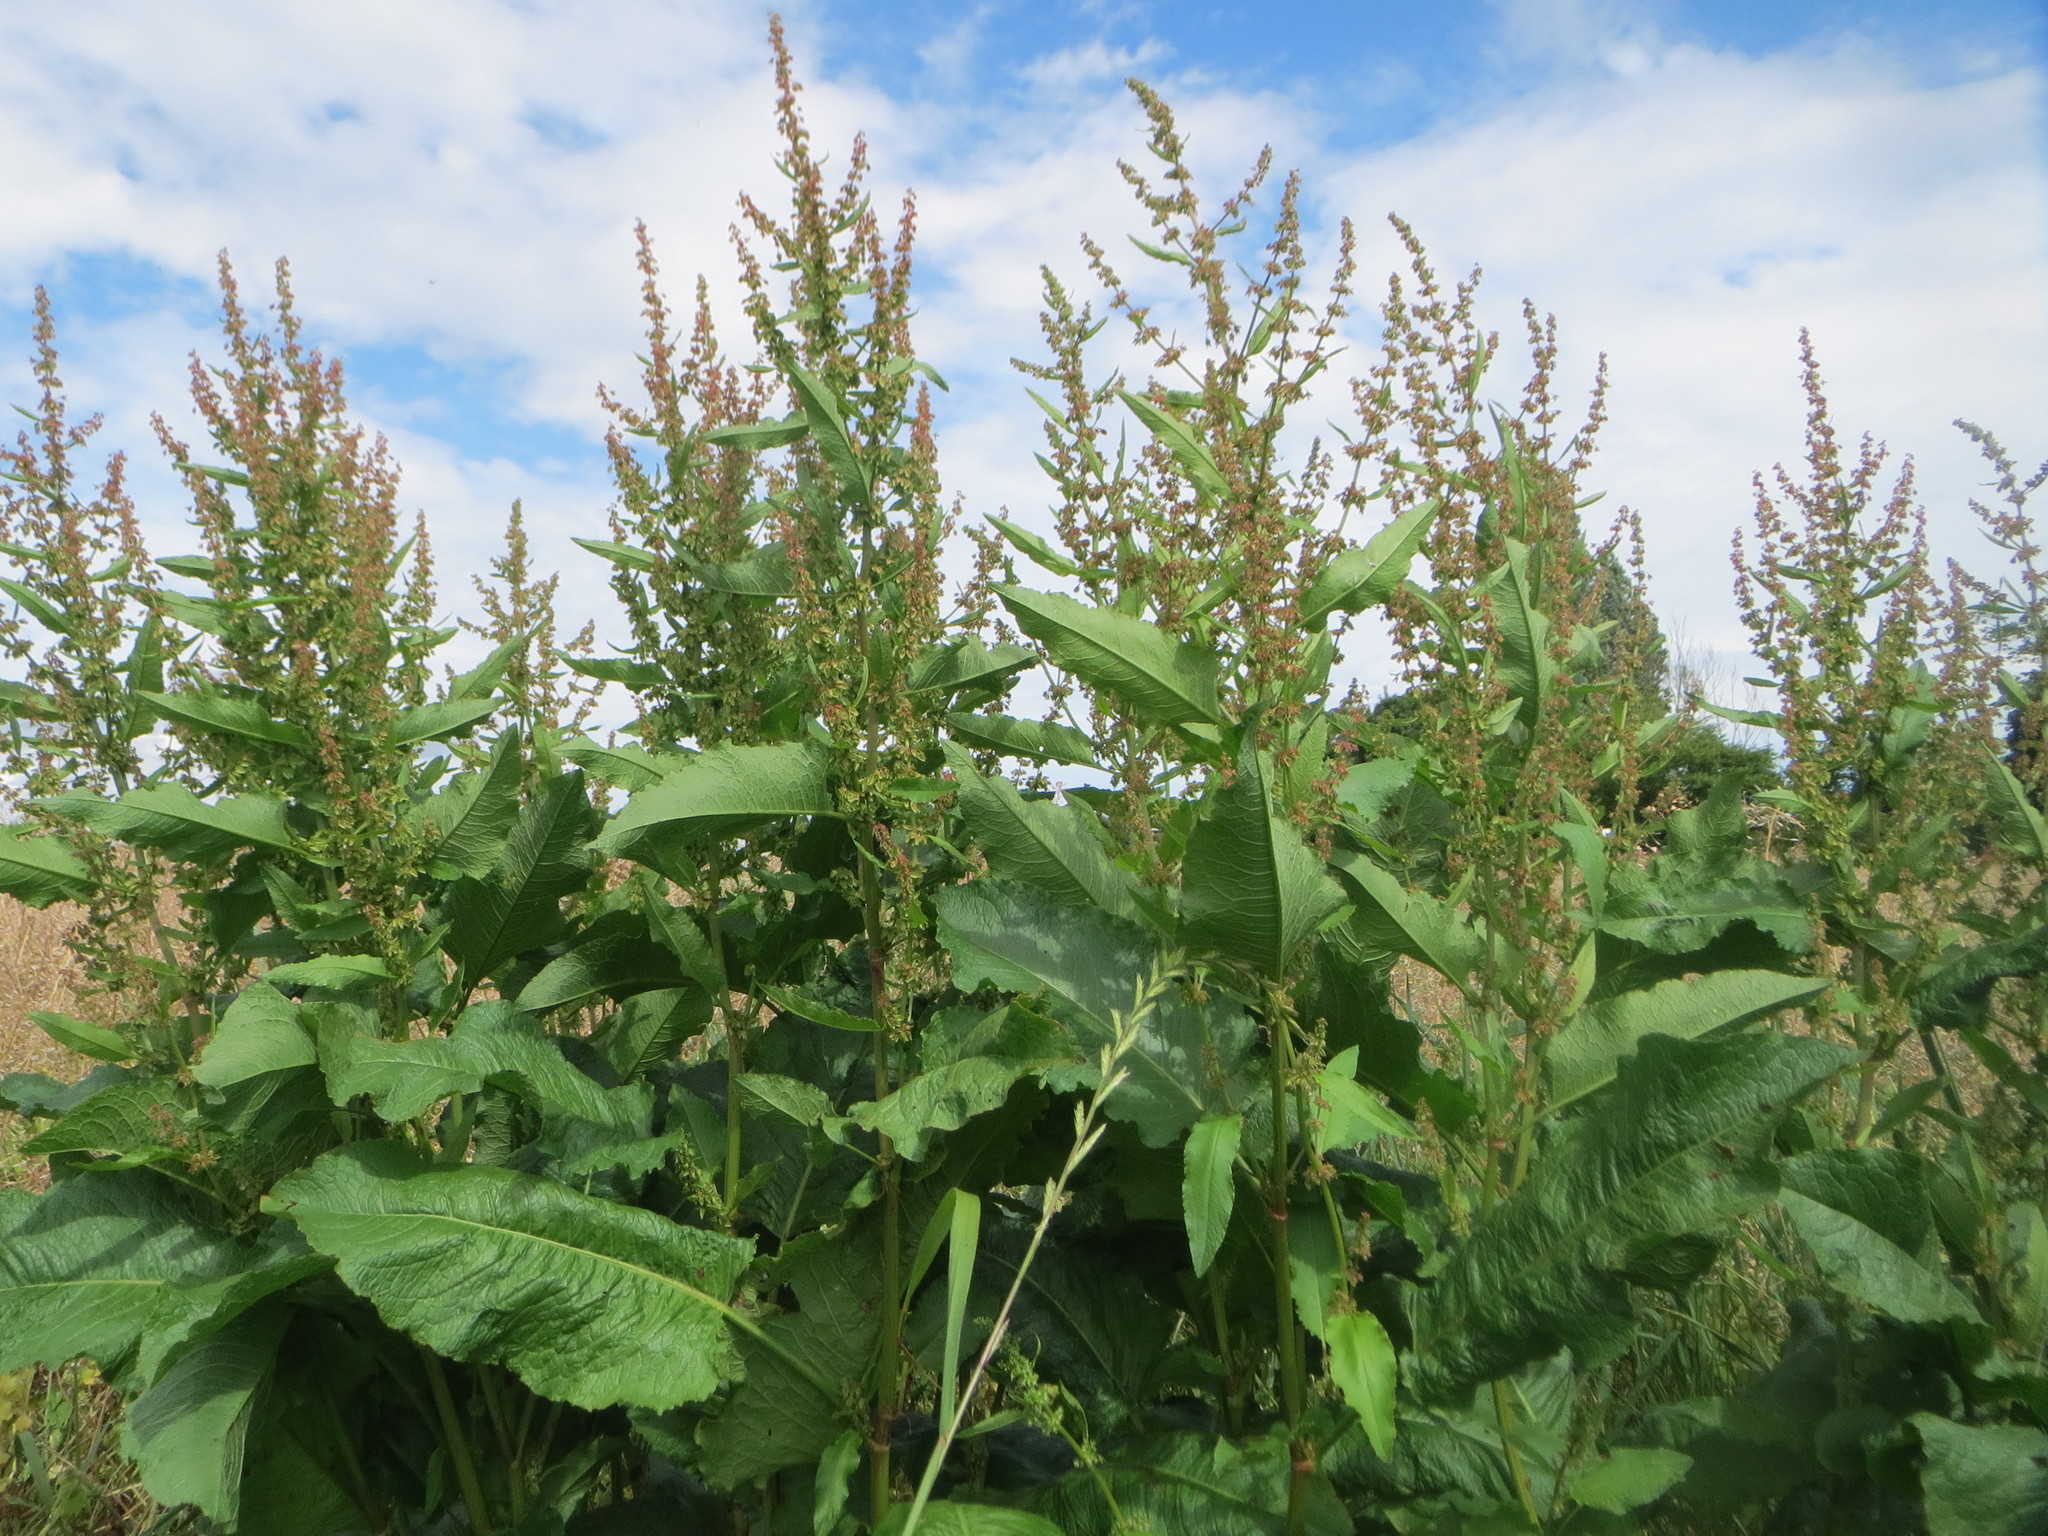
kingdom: Plantae
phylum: Tracheophyta
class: Magnoliopsida
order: Caryophyllales
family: Polygonaceae
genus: Rumex
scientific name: Rumex obtusifolius
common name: Bitter dock
